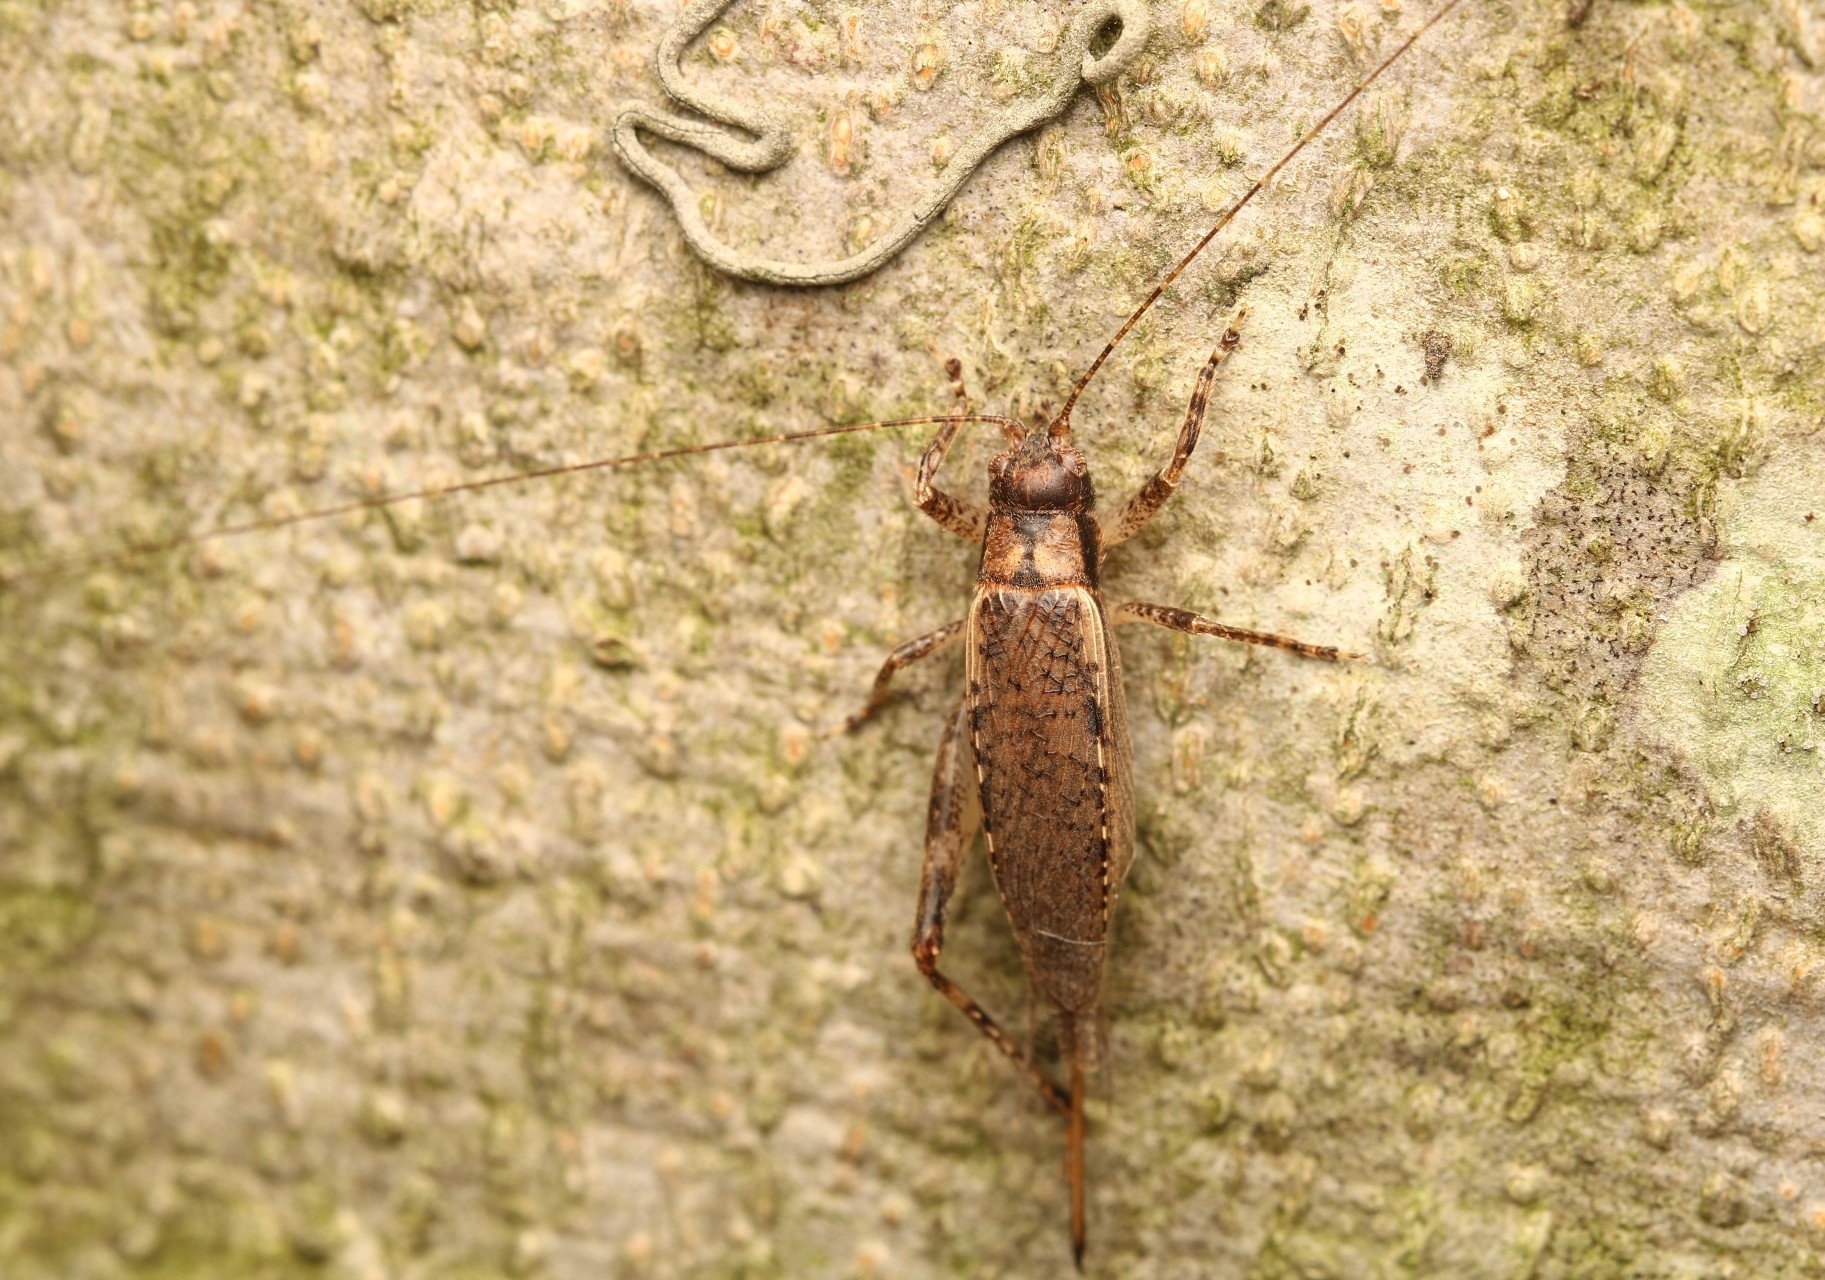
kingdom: Animalia
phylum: Arthropoda
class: Insecta
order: Orthoptera
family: Gryllidae
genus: Hapithus
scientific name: Hapithus saltator
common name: Jumping bush cricket
